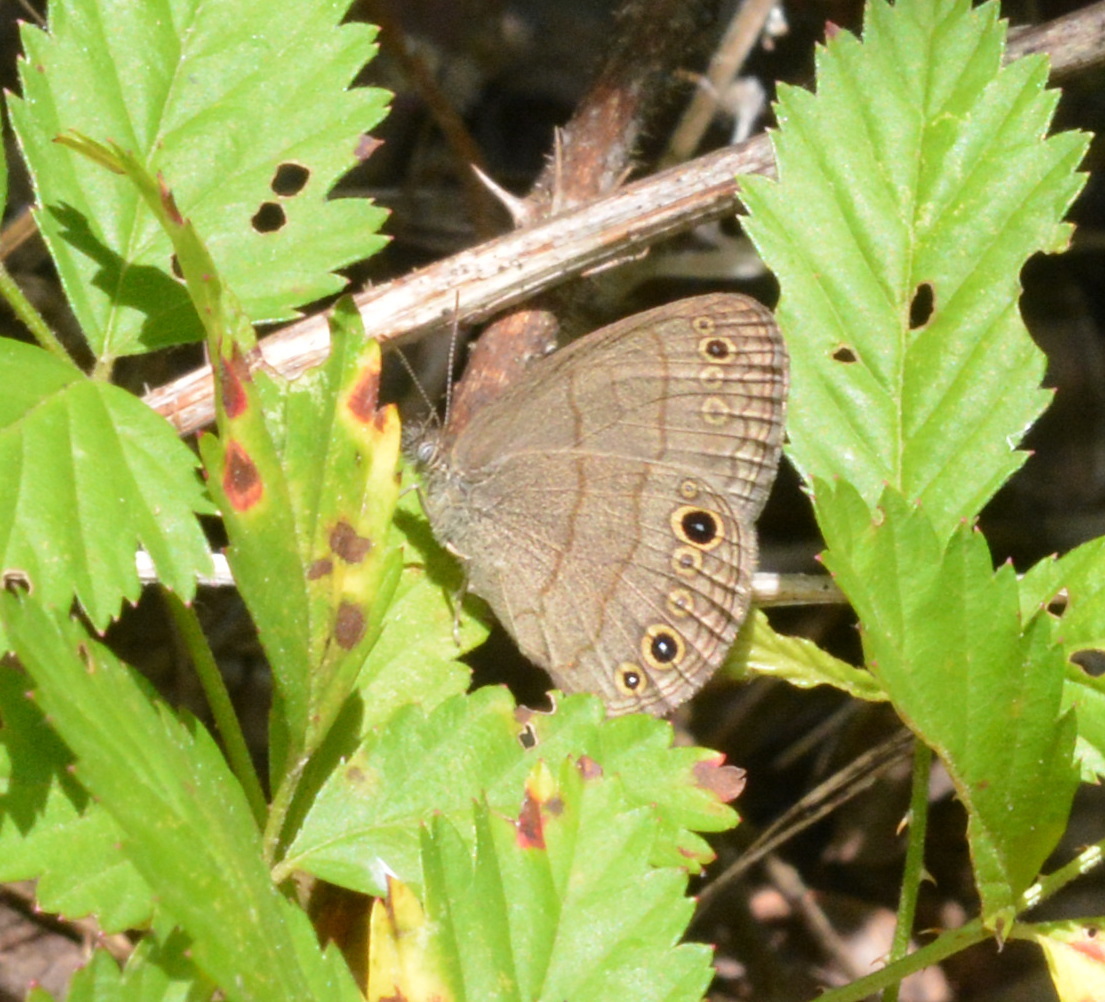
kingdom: Animalia
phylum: Arthropoda
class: Insecta
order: Lepidoptera
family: Nymphalidae
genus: Hermeuptychia
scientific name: Hermeuptychia hermes
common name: Hermes satyr
